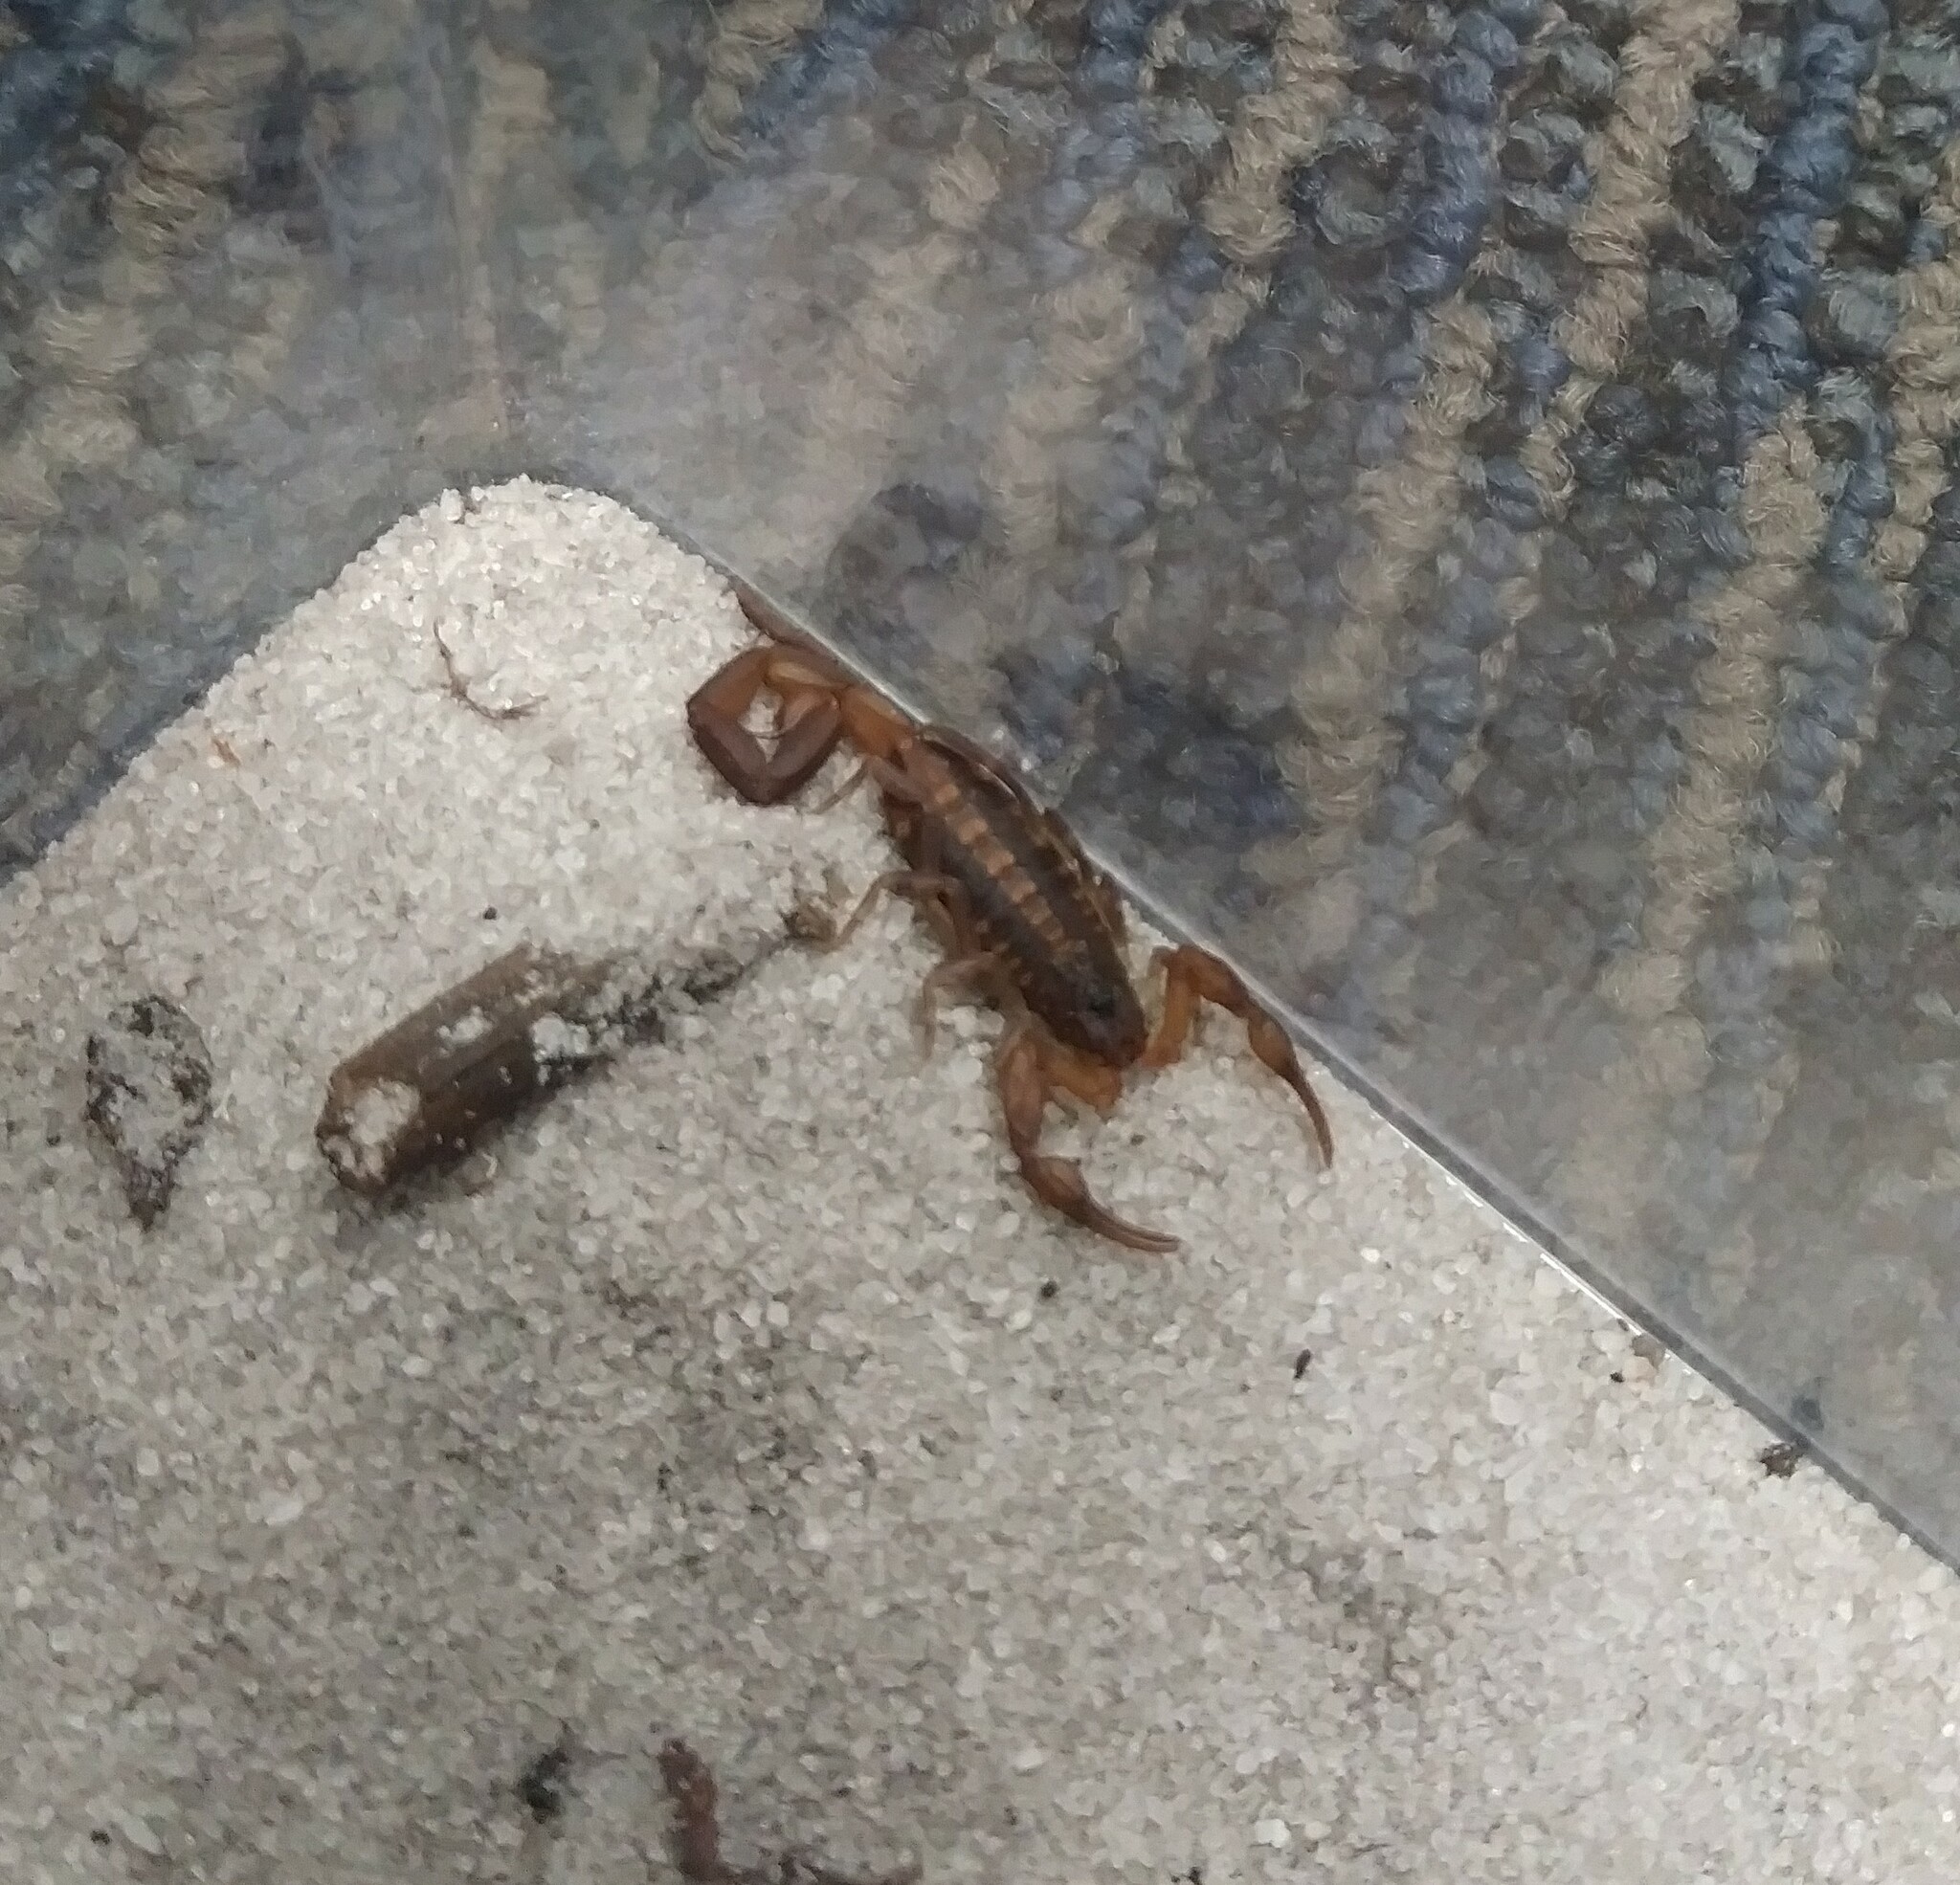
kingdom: Animalia
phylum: Arthropoda
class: Arachnida
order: Scorpiones
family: Buthidae
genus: Centruroides
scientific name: Centruroides hentzi
